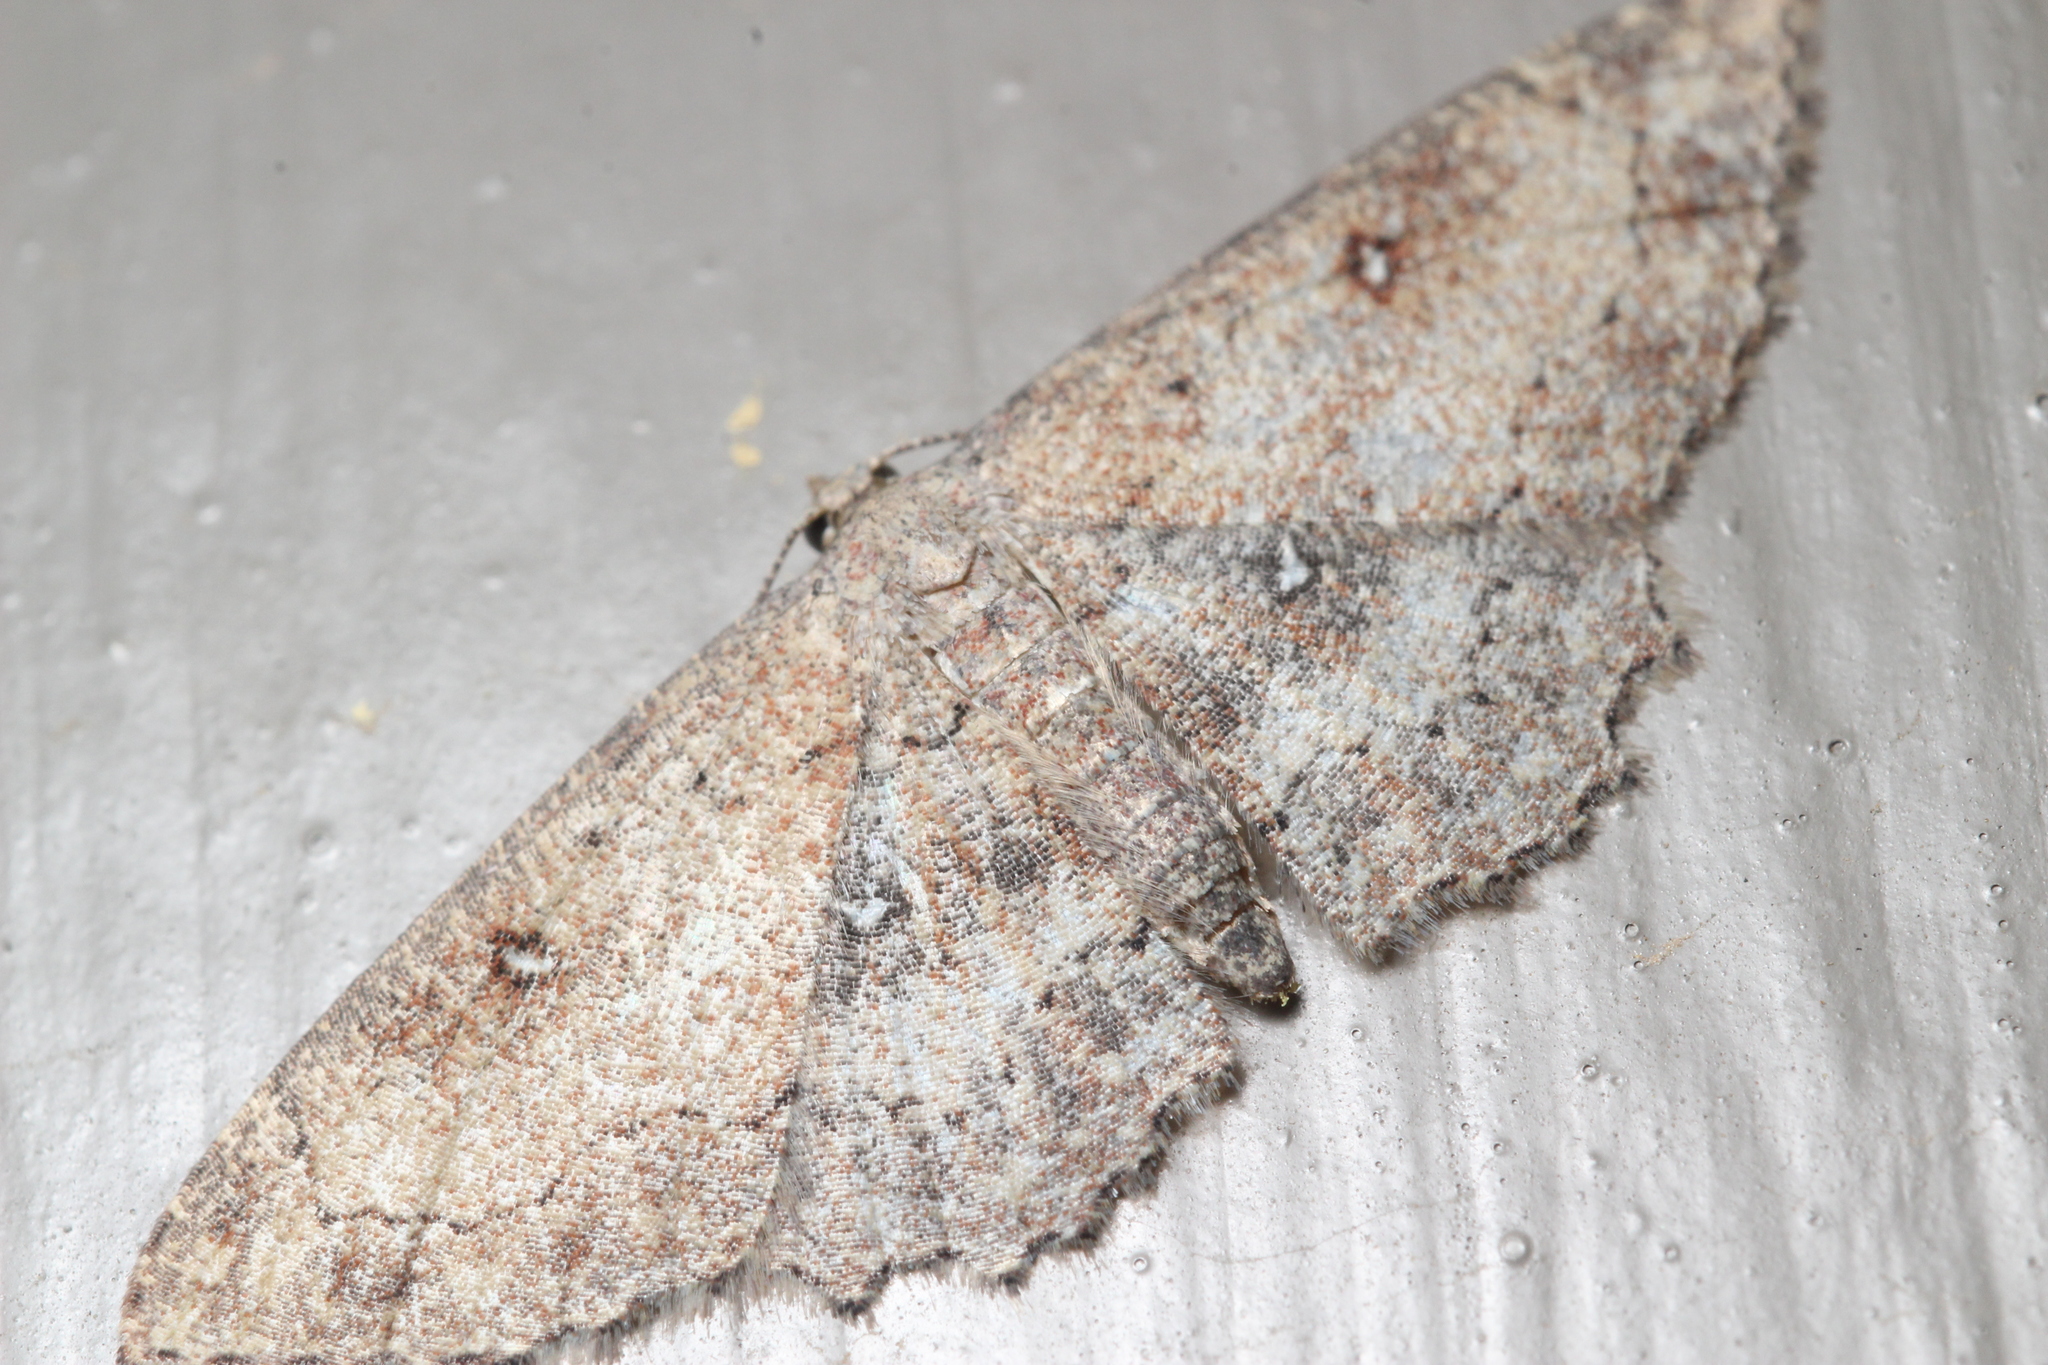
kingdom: Animalia
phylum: Arthropoda
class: Insecta
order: Lepidoptera
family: Geometridae
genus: Cyclophora
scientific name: Cyclophora nanaria
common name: Cankerworm
